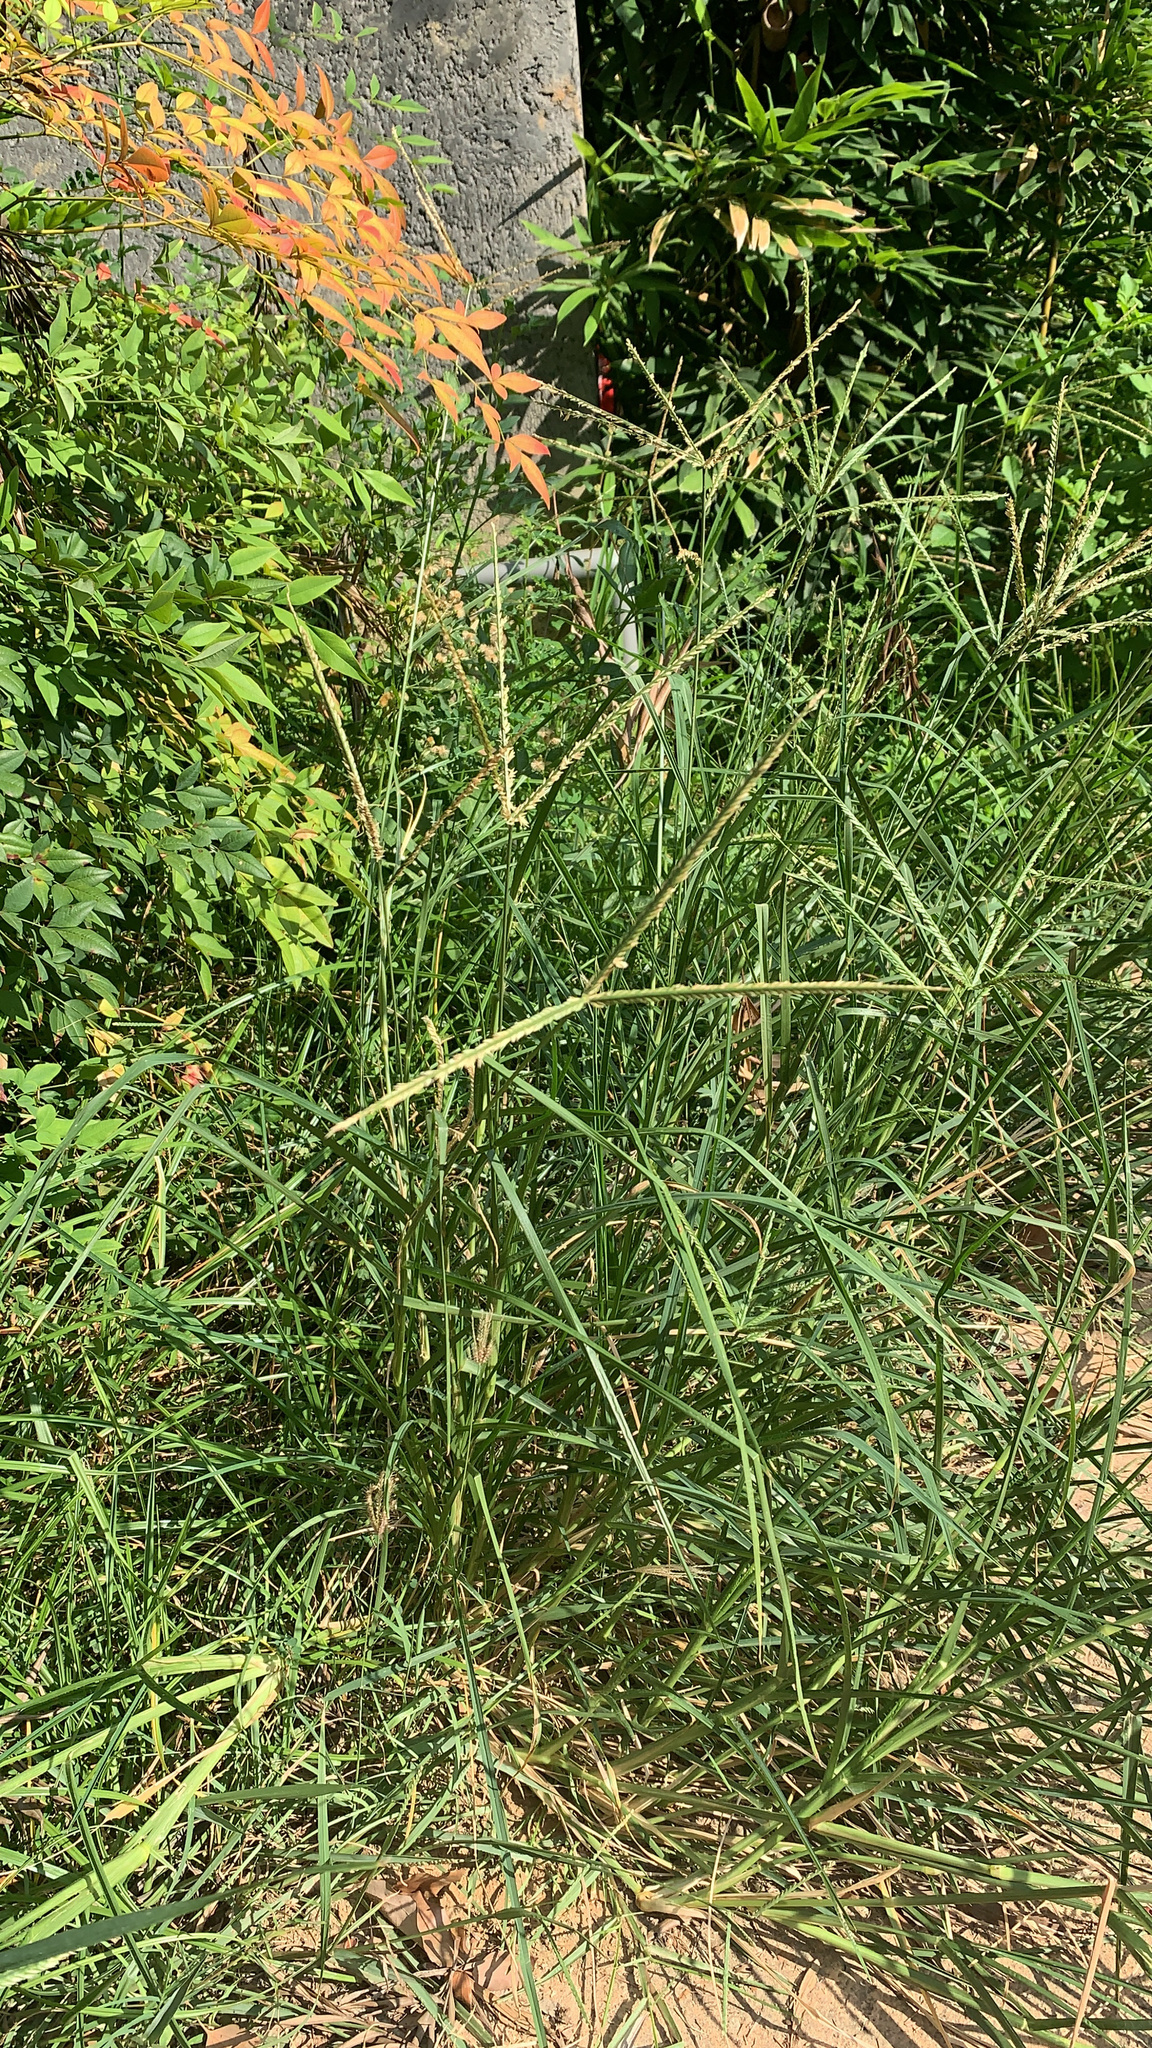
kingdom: Plantae
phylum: Tracheophyta
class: Liliopsida
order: Poales
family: Poaceae
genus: Eleusine
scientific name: Eleusine indica
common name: Yard-grass
